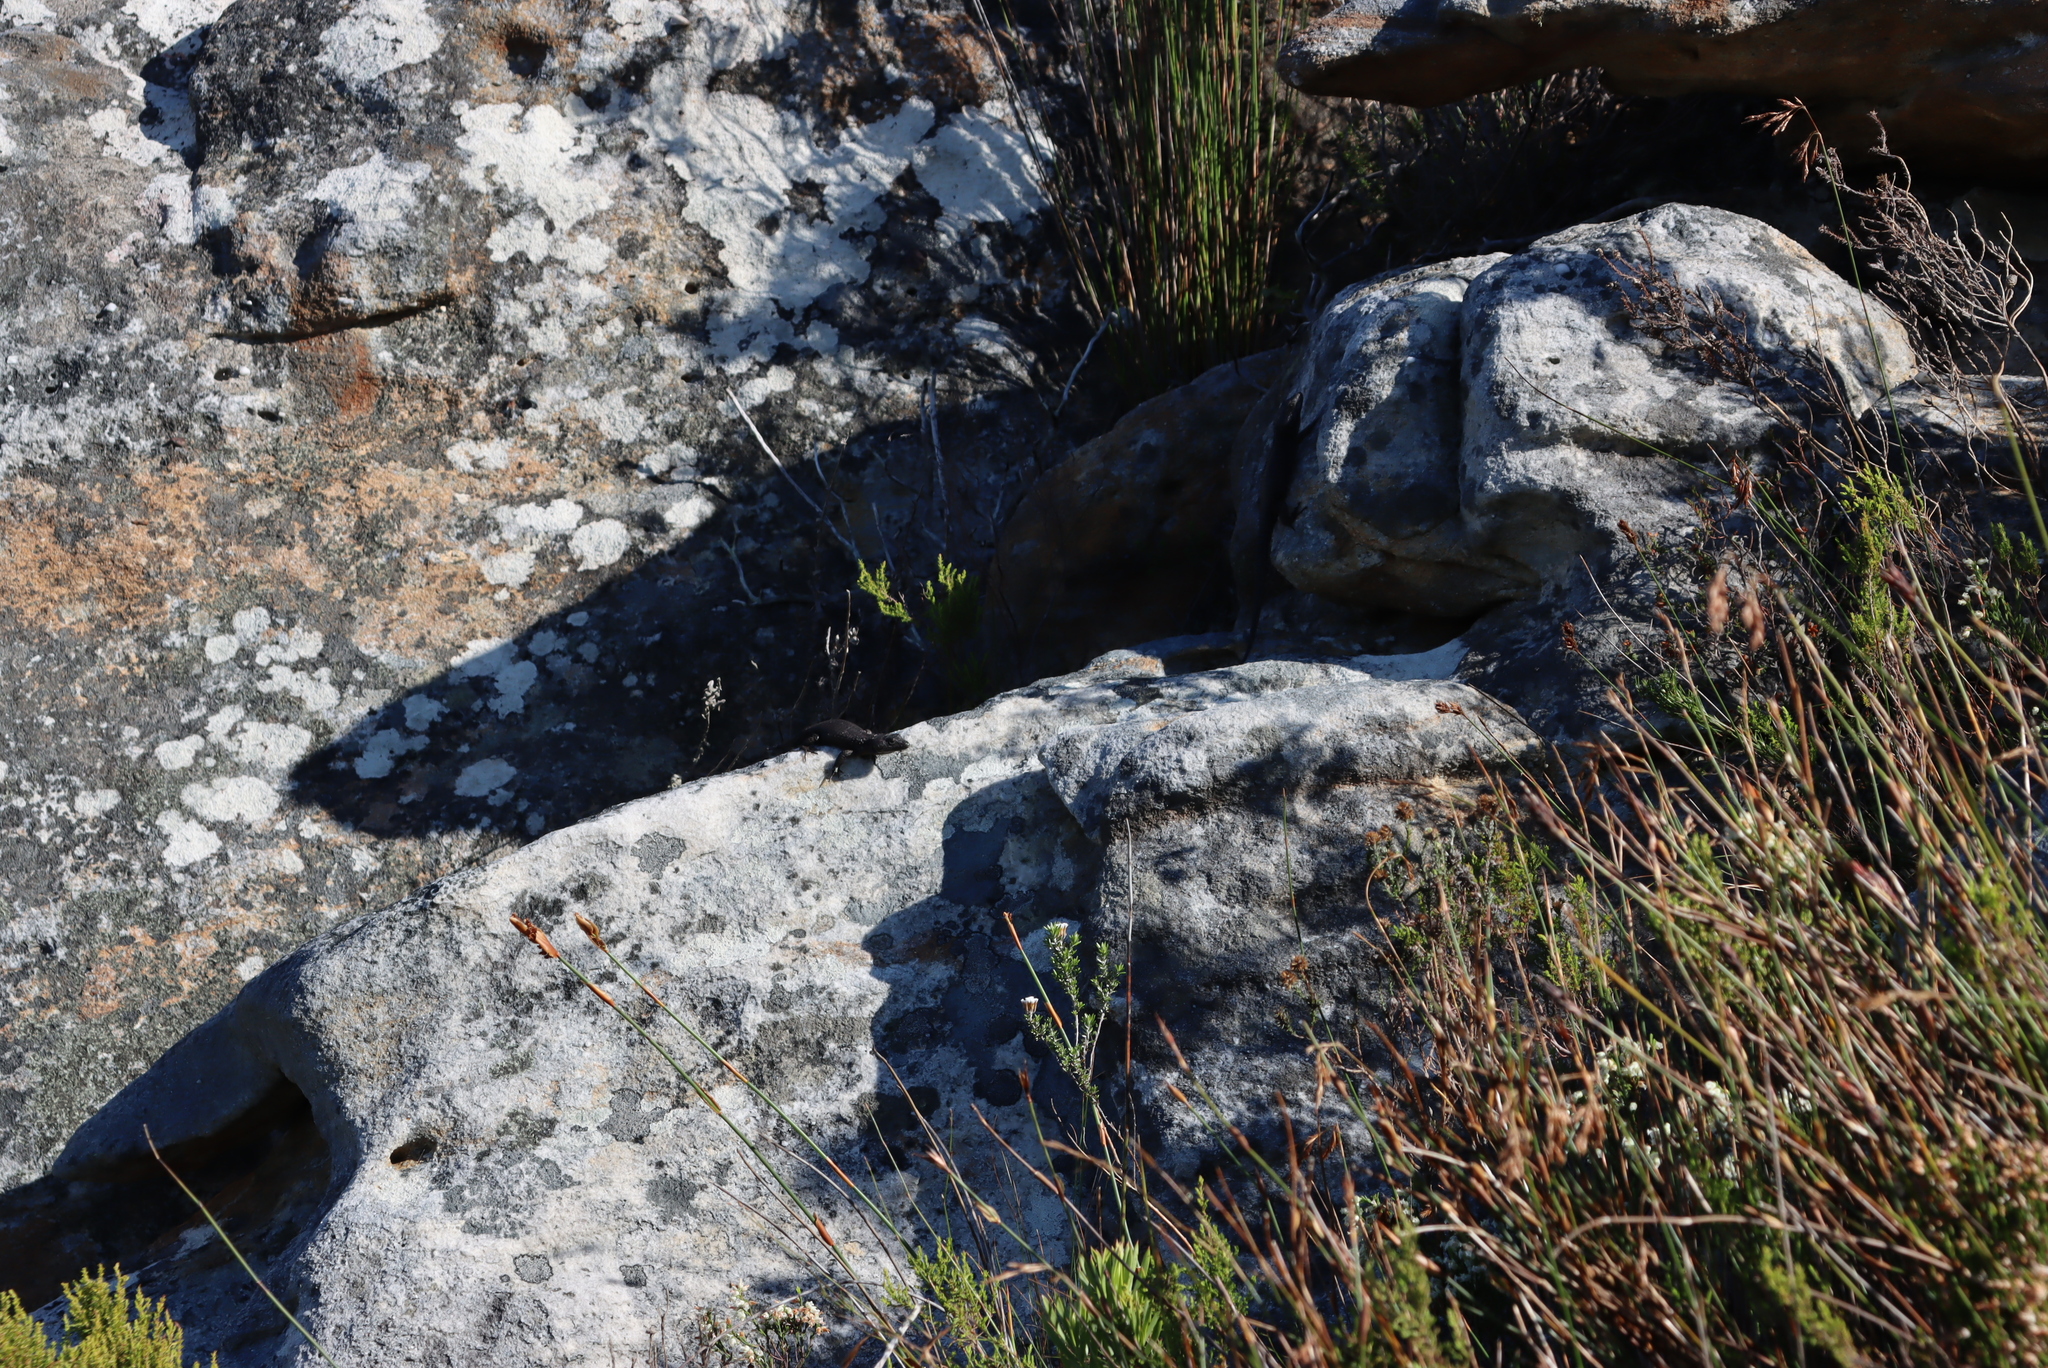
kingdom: Animalia
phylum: Chordata
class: Squamata
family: Cordylidae
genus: Cordylus
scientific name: Cordylus niger
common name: Black girdled lizard
